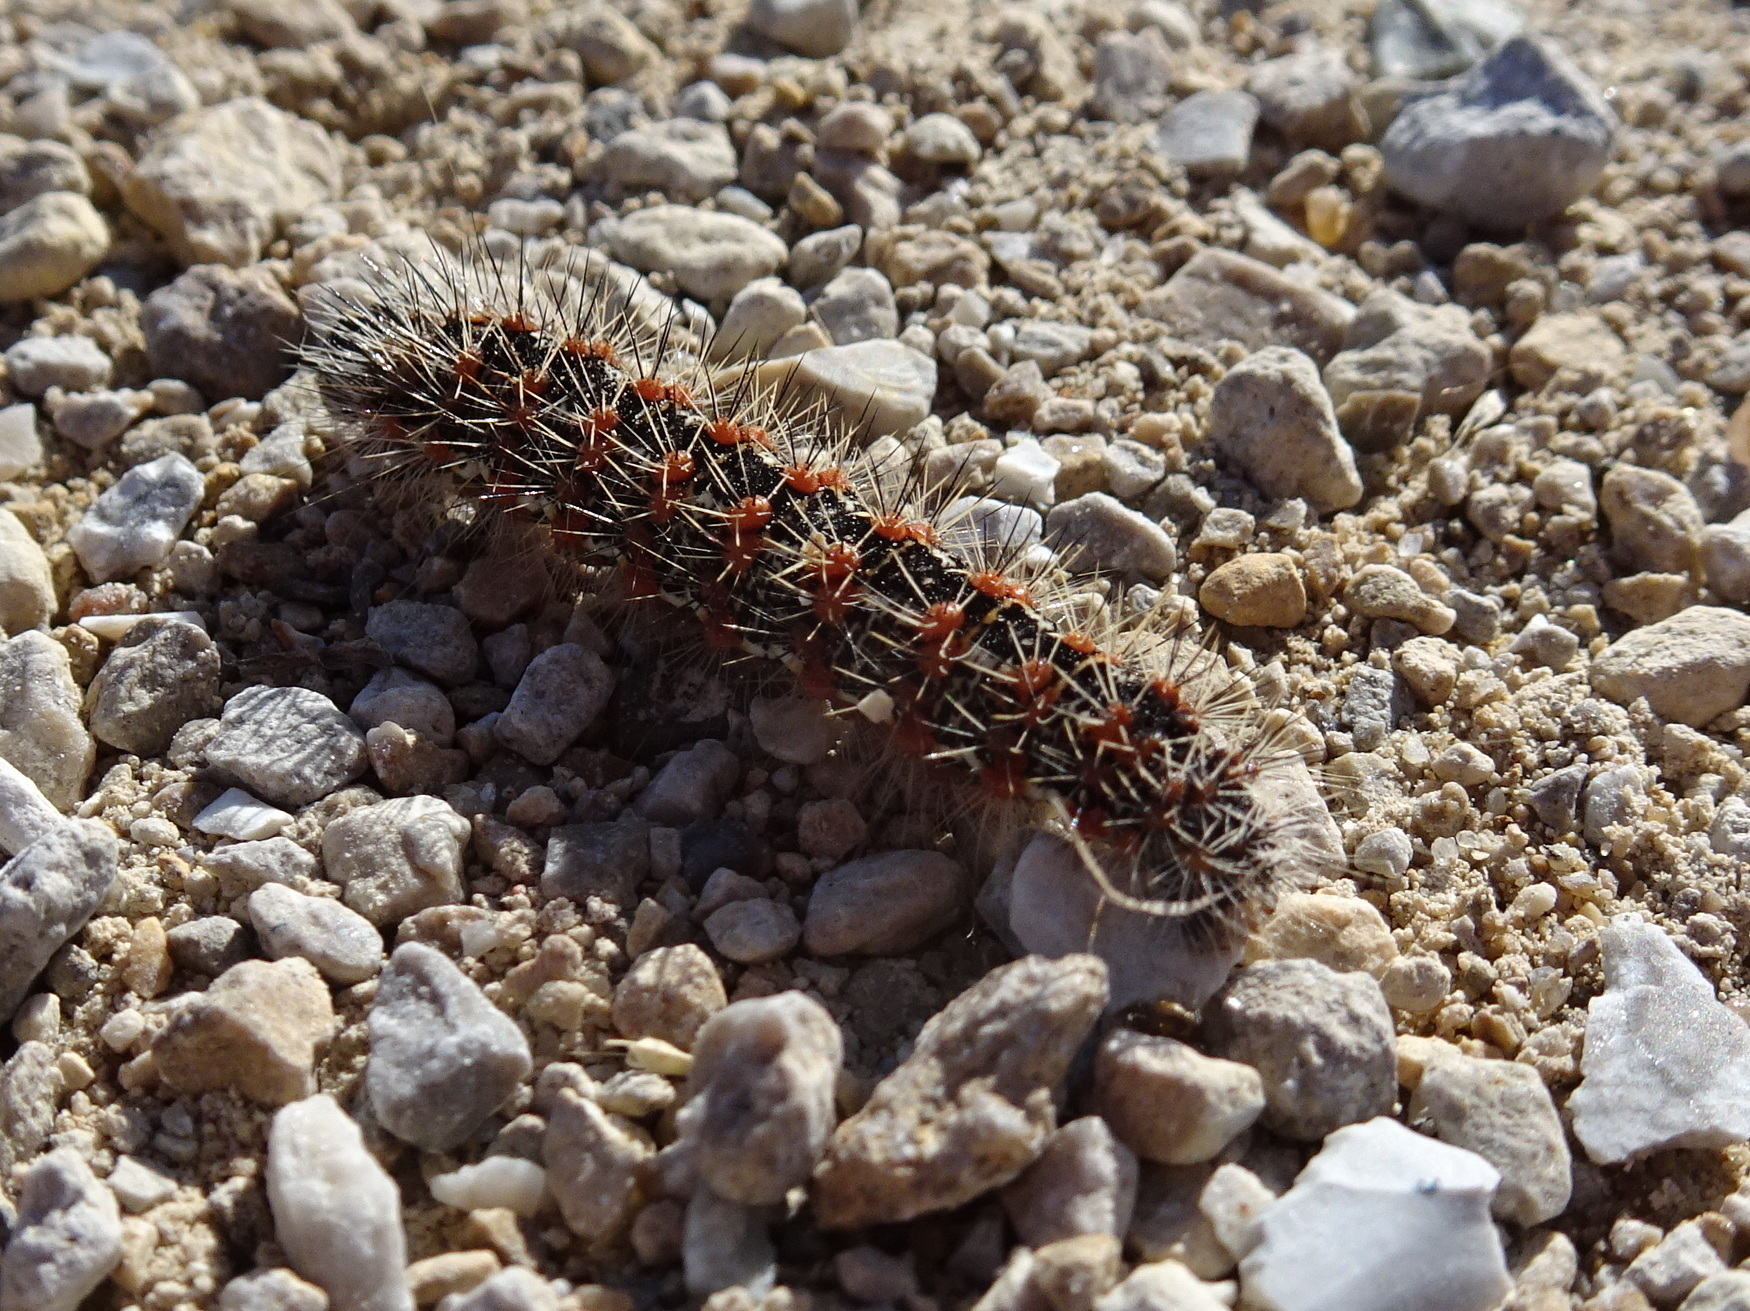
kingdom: Animalia
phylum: Arthropoda
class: Insecta
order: Lepidoptera
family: Noctuidae
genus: Acronicta
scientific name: Acronicta insularis
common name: Henry's marsh moth
